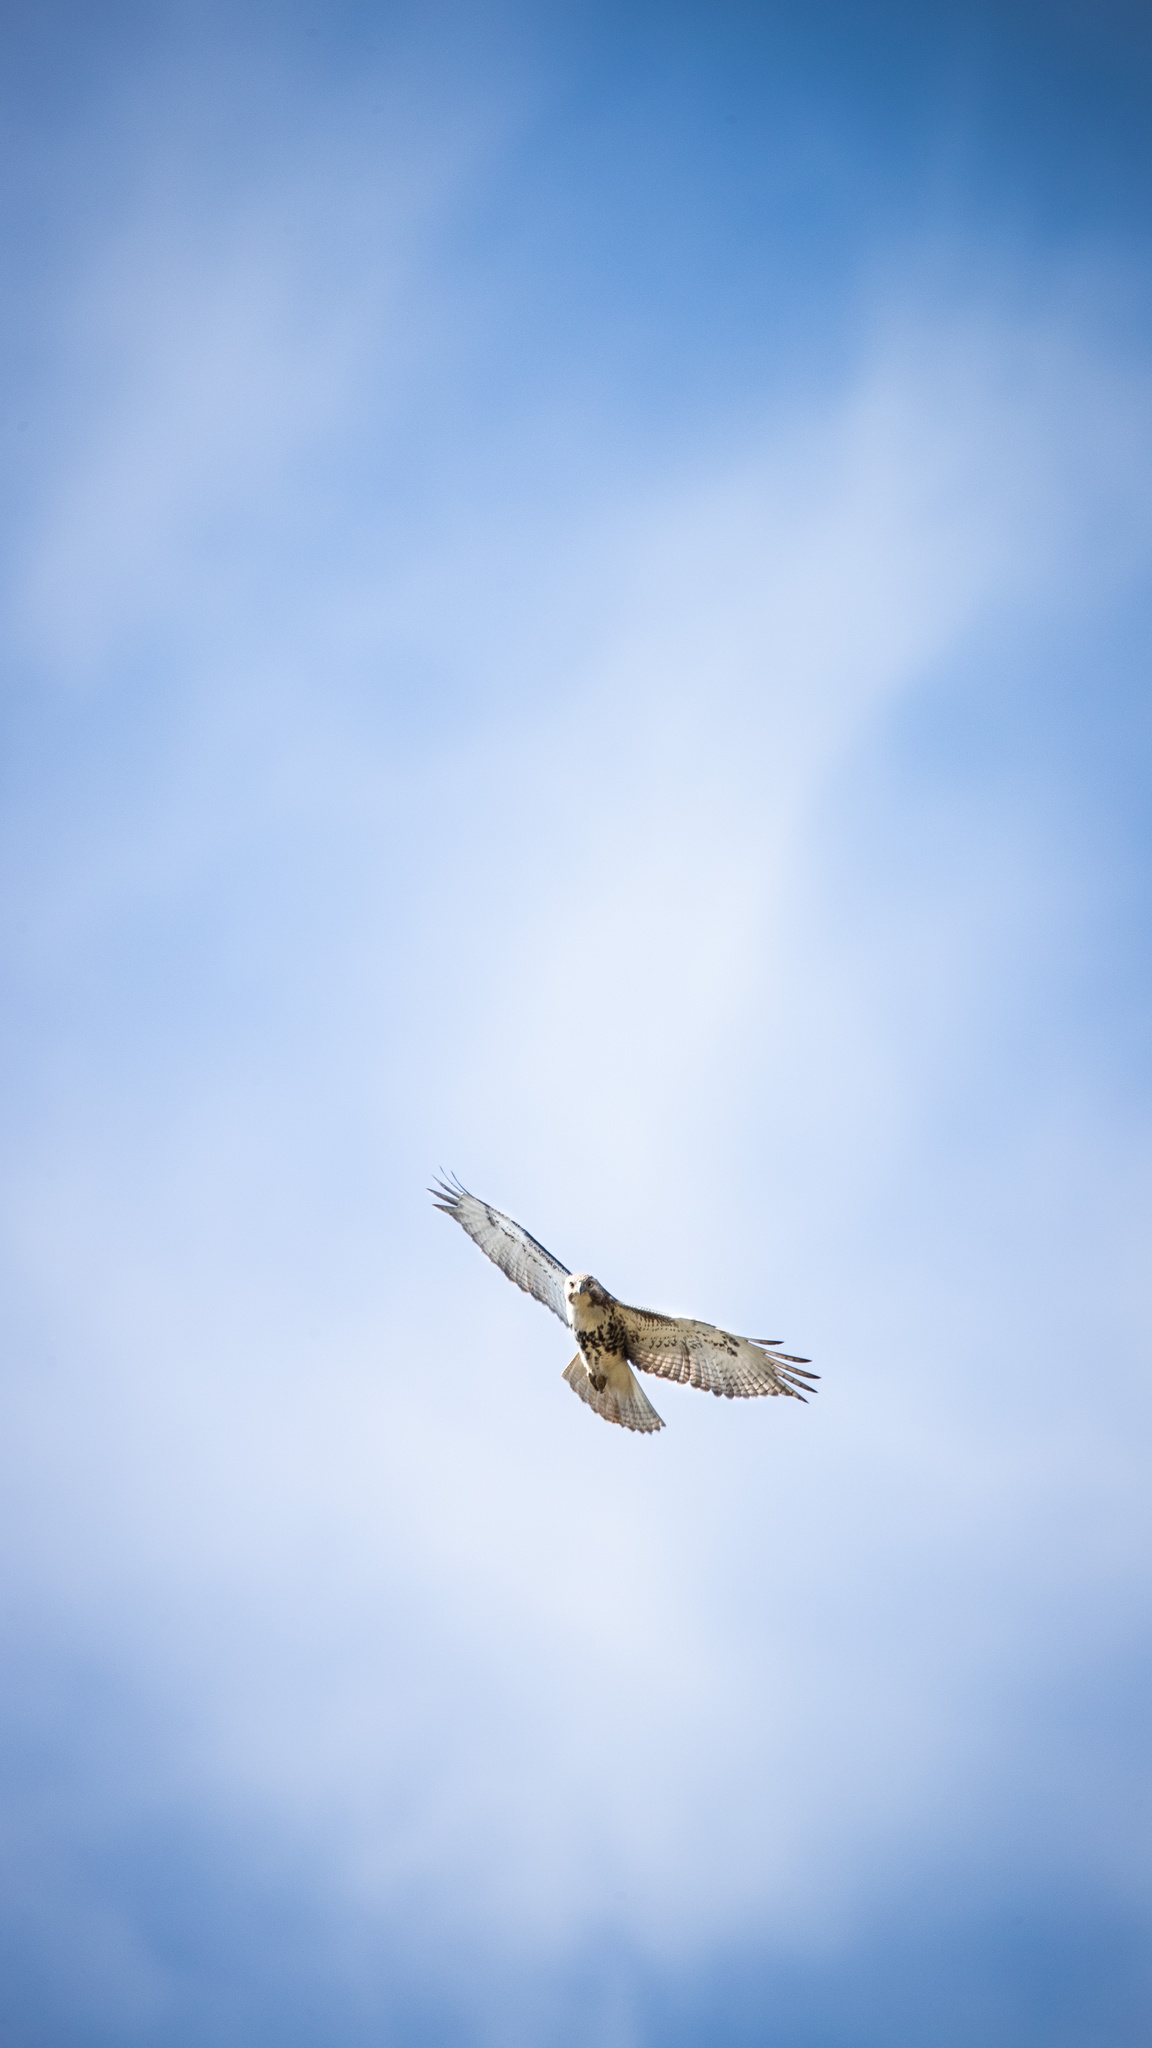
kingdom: Animalia
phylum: Chordata
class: Aves
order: Accipitriformes
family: Accipitridae
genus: Buteo
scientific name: Buteo jamaicensis
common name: Red-tailed hawk
